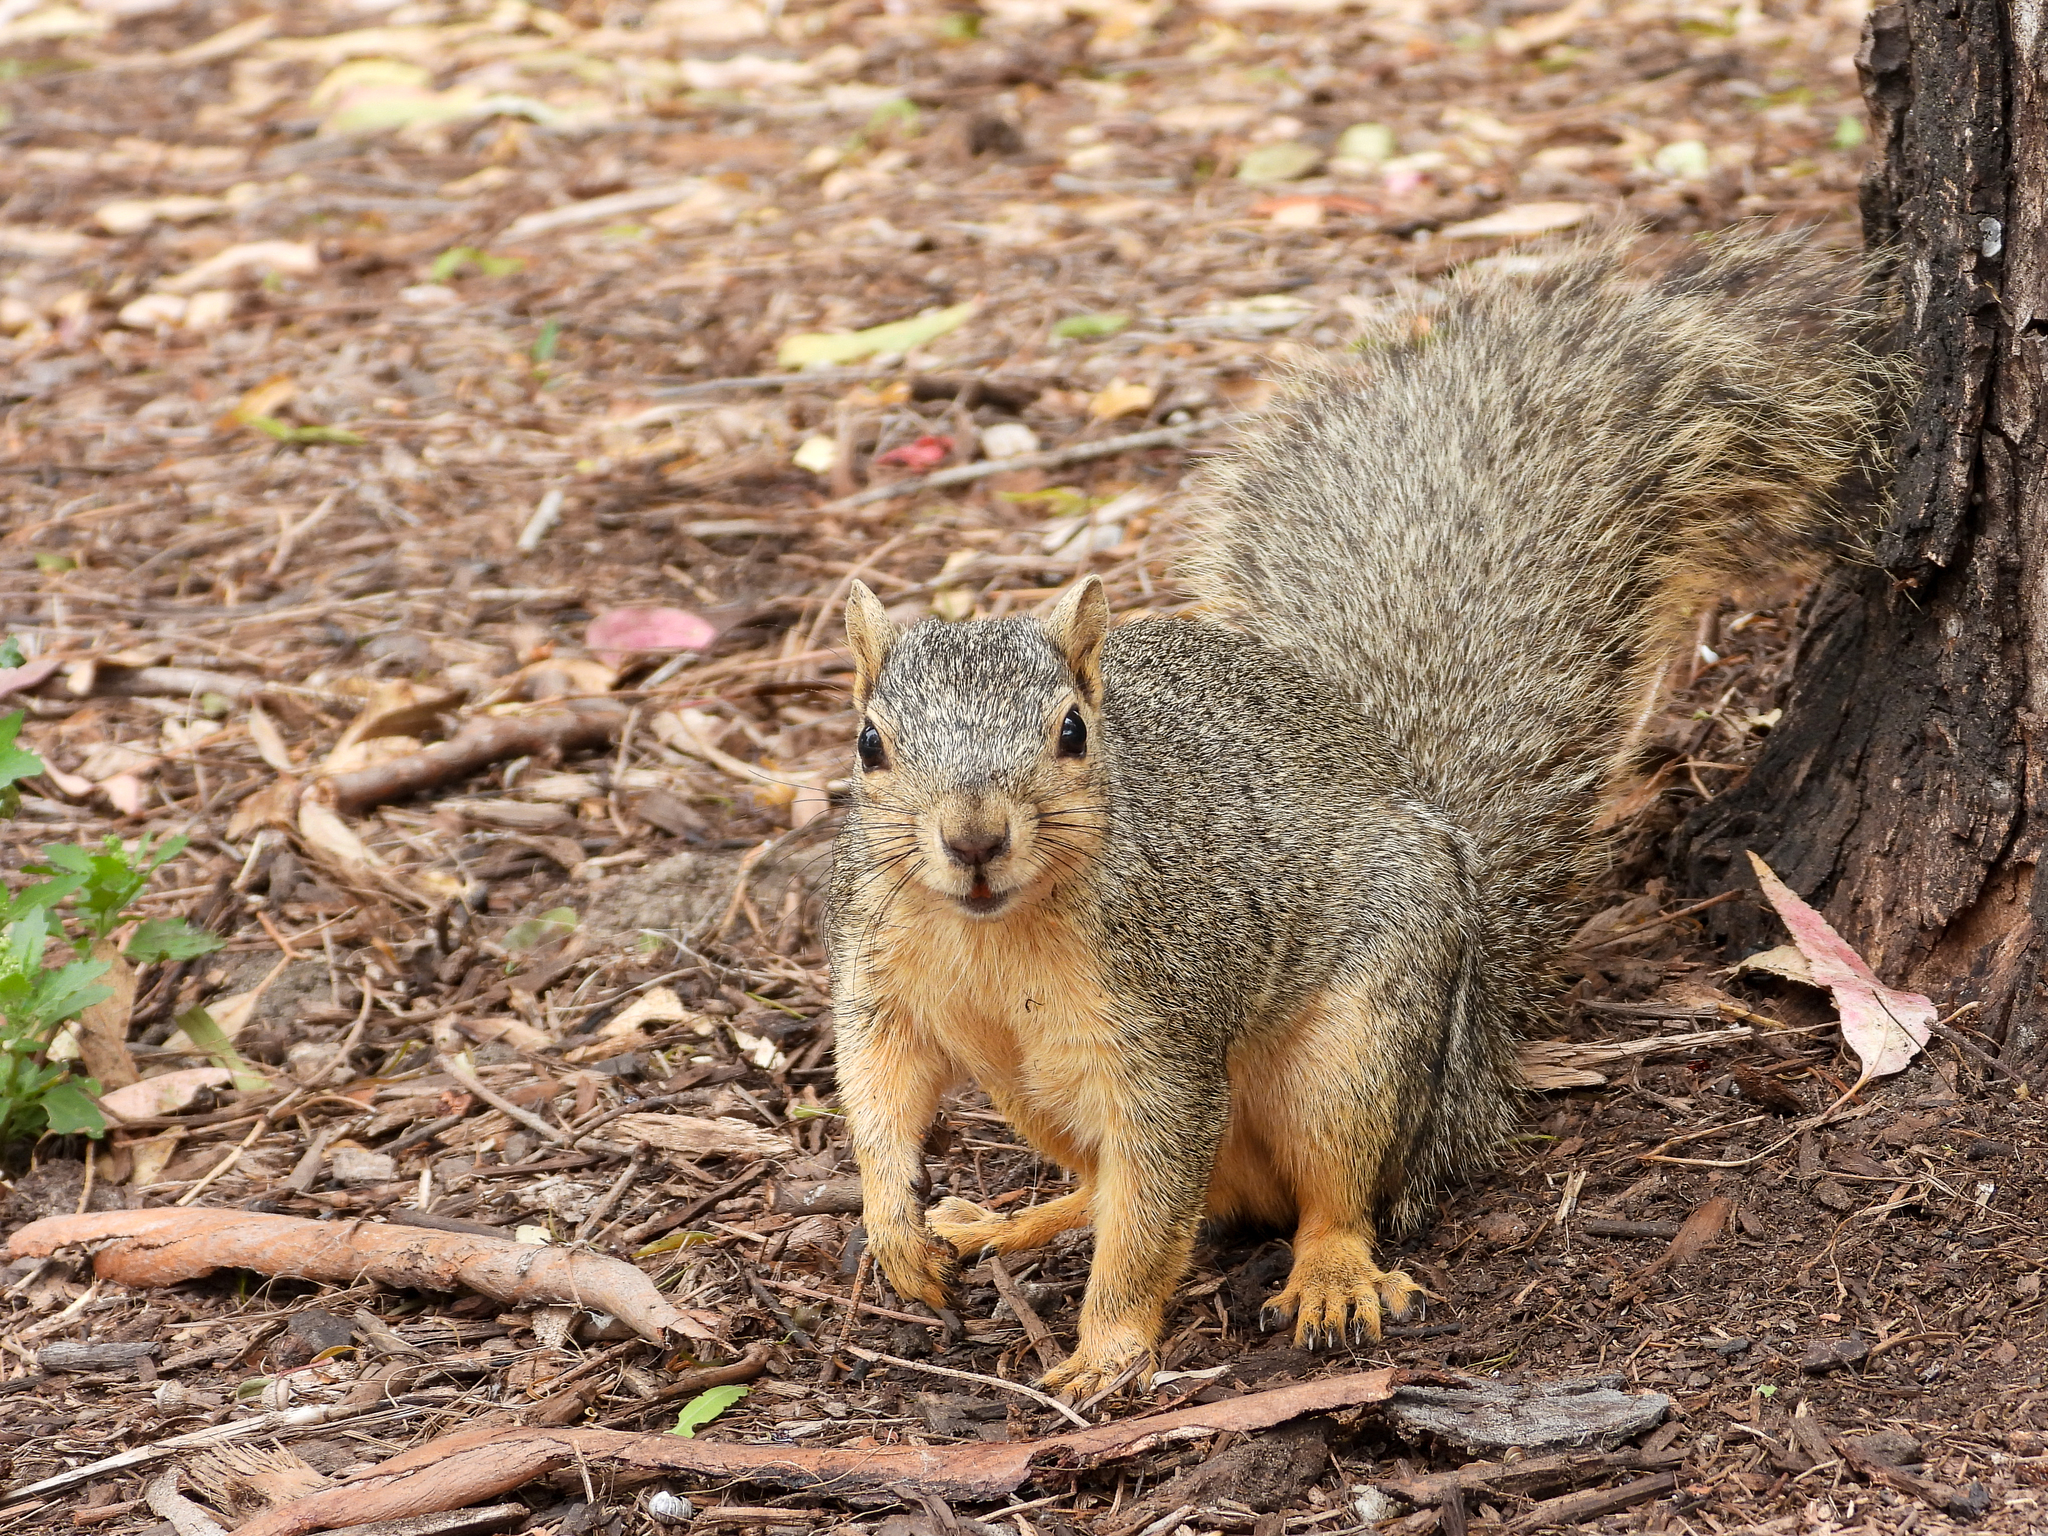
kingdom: Animalia
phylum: Chordata
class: Mammalia
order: Rodentia
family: Sciuridae
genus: Sciurus
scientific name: Sciurus niger
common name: Fox squirrel
